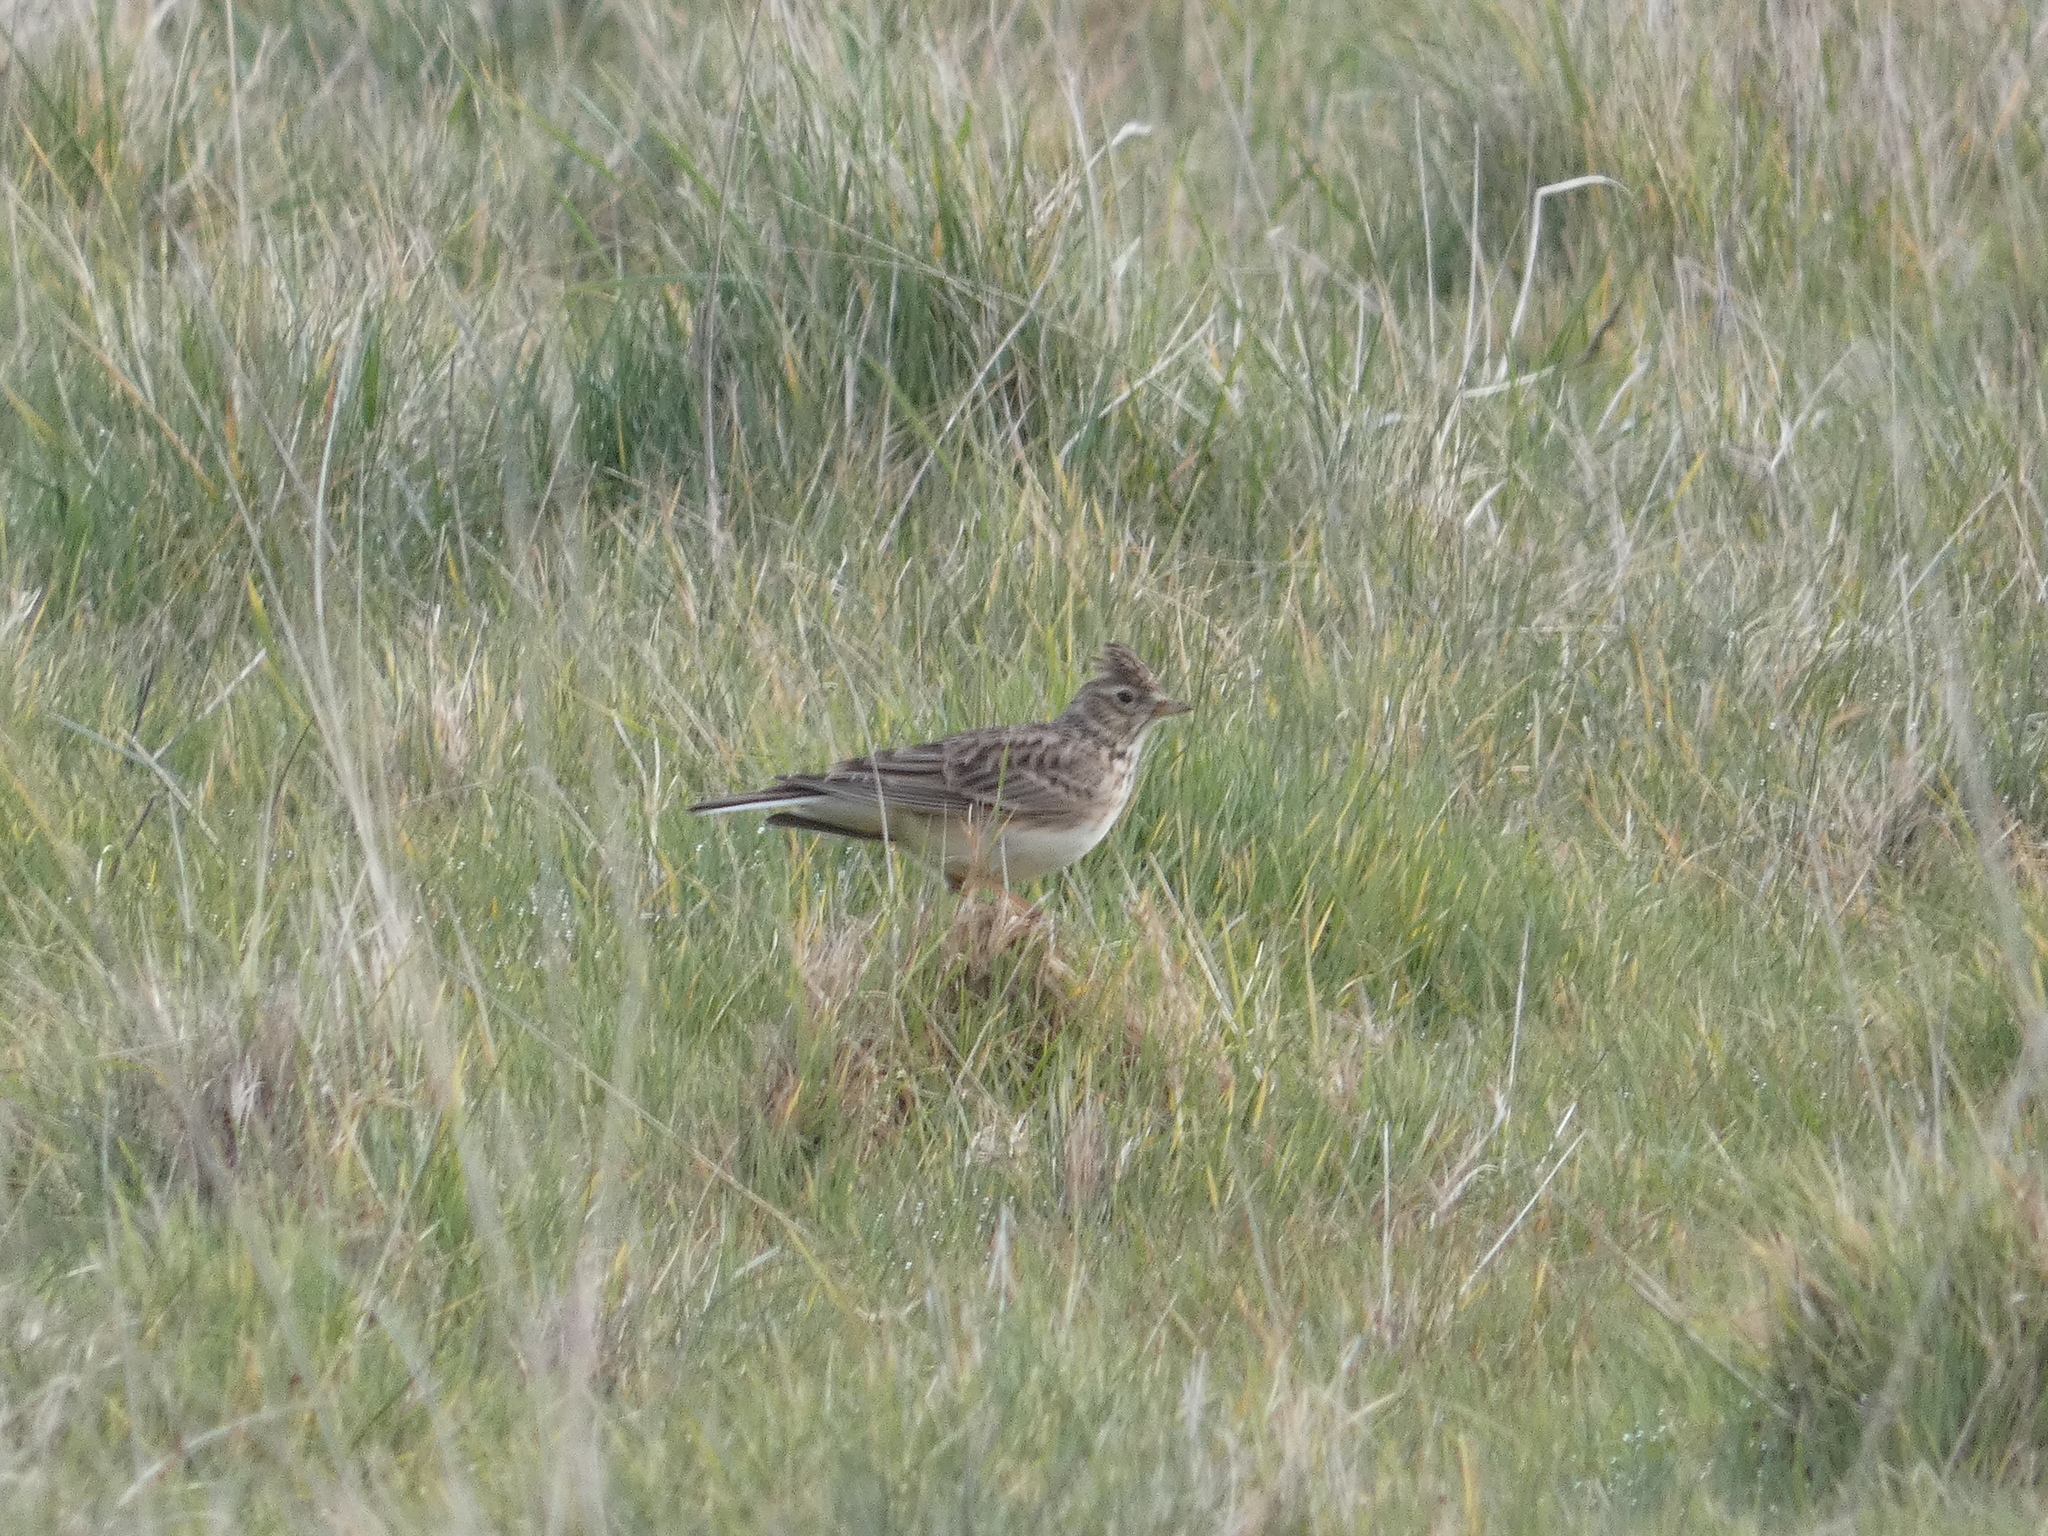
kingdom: Animalia
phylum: Chordata
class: Aves
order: Passeriformes
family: Alaudidae
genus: Alauda
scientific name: Alauda arvensis
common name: Eurasian skylark
